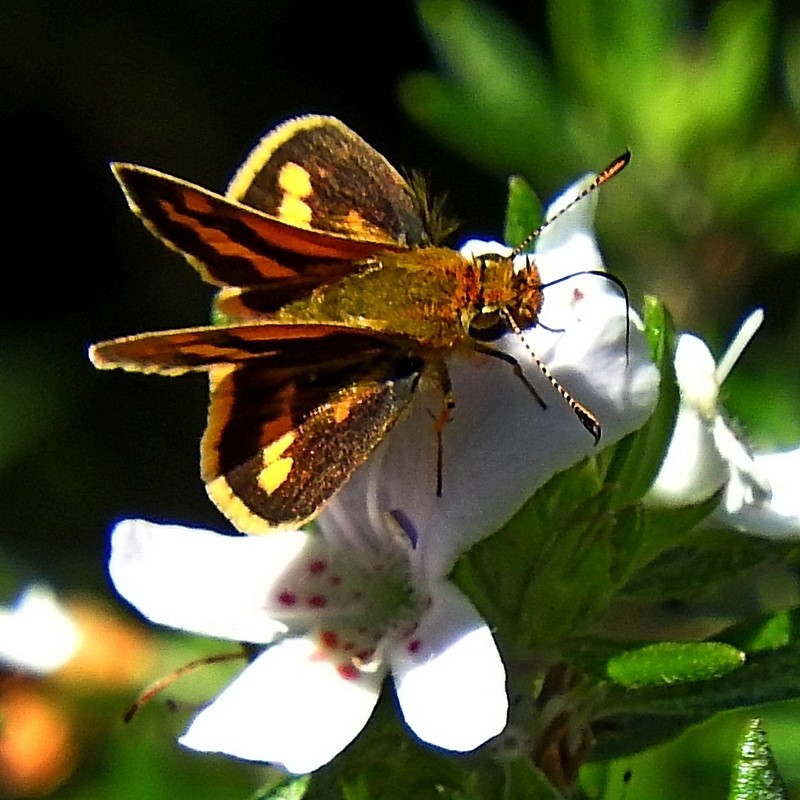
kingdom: Animalia
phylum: Arthropoda
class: Insecta
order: Lepidoptera
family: Hesperiidae
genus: Ocybadistes
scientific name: Ocybadistes flavovittata
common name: Narrow-brand grass-dart
